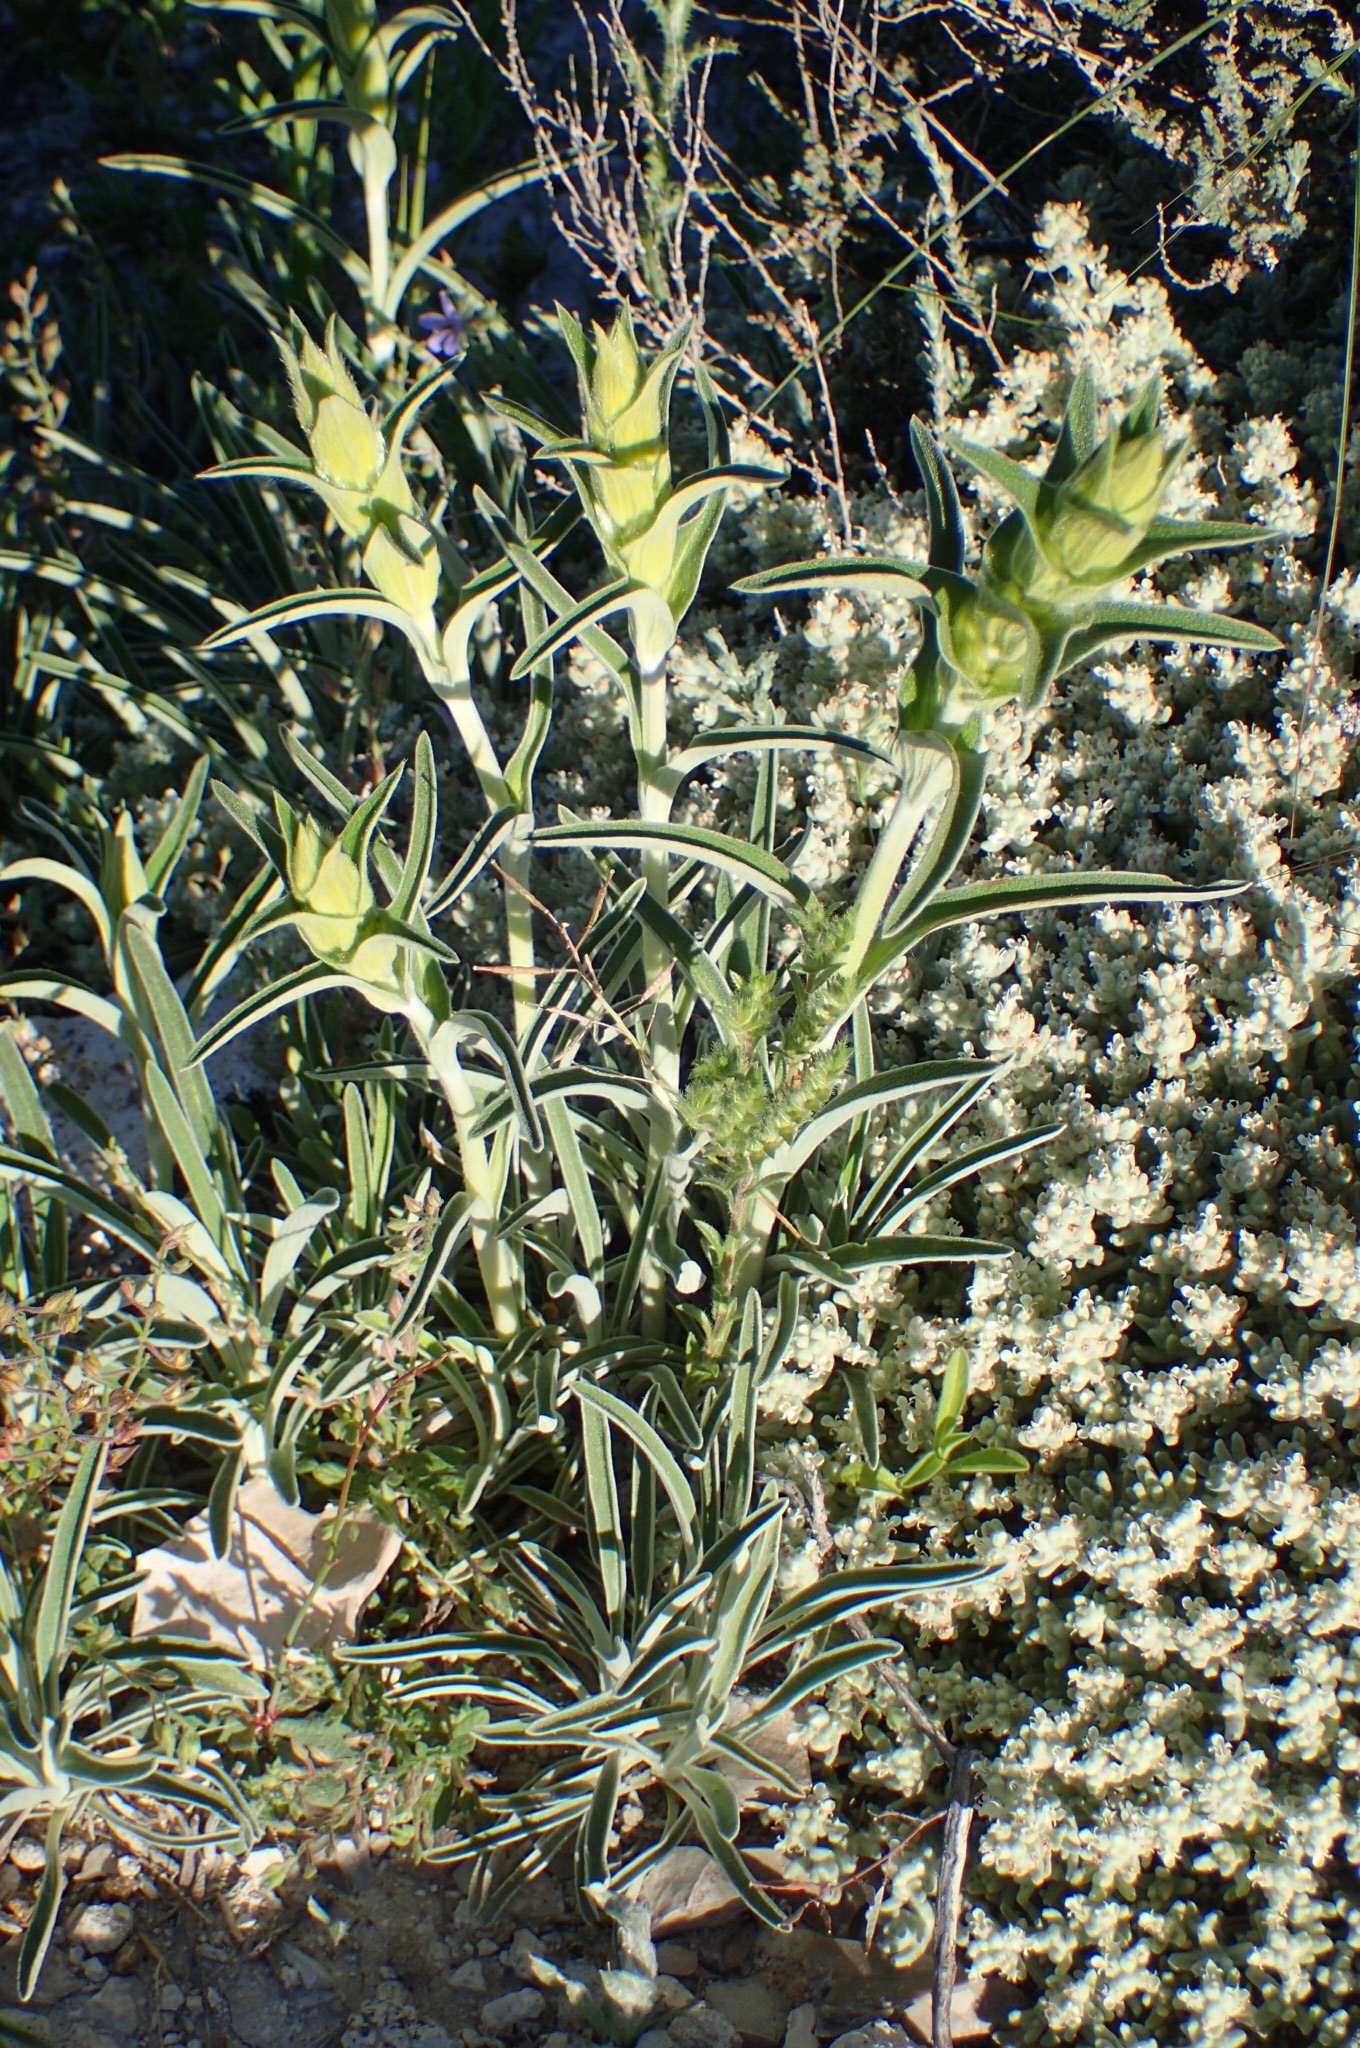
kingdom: Plantae
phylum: Tracheophyta
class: Magnoliopsida
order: Lamiales
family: Lamiaceae
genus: Phlomis
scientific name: Phlomis lychnitis
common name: Lampwickplant
